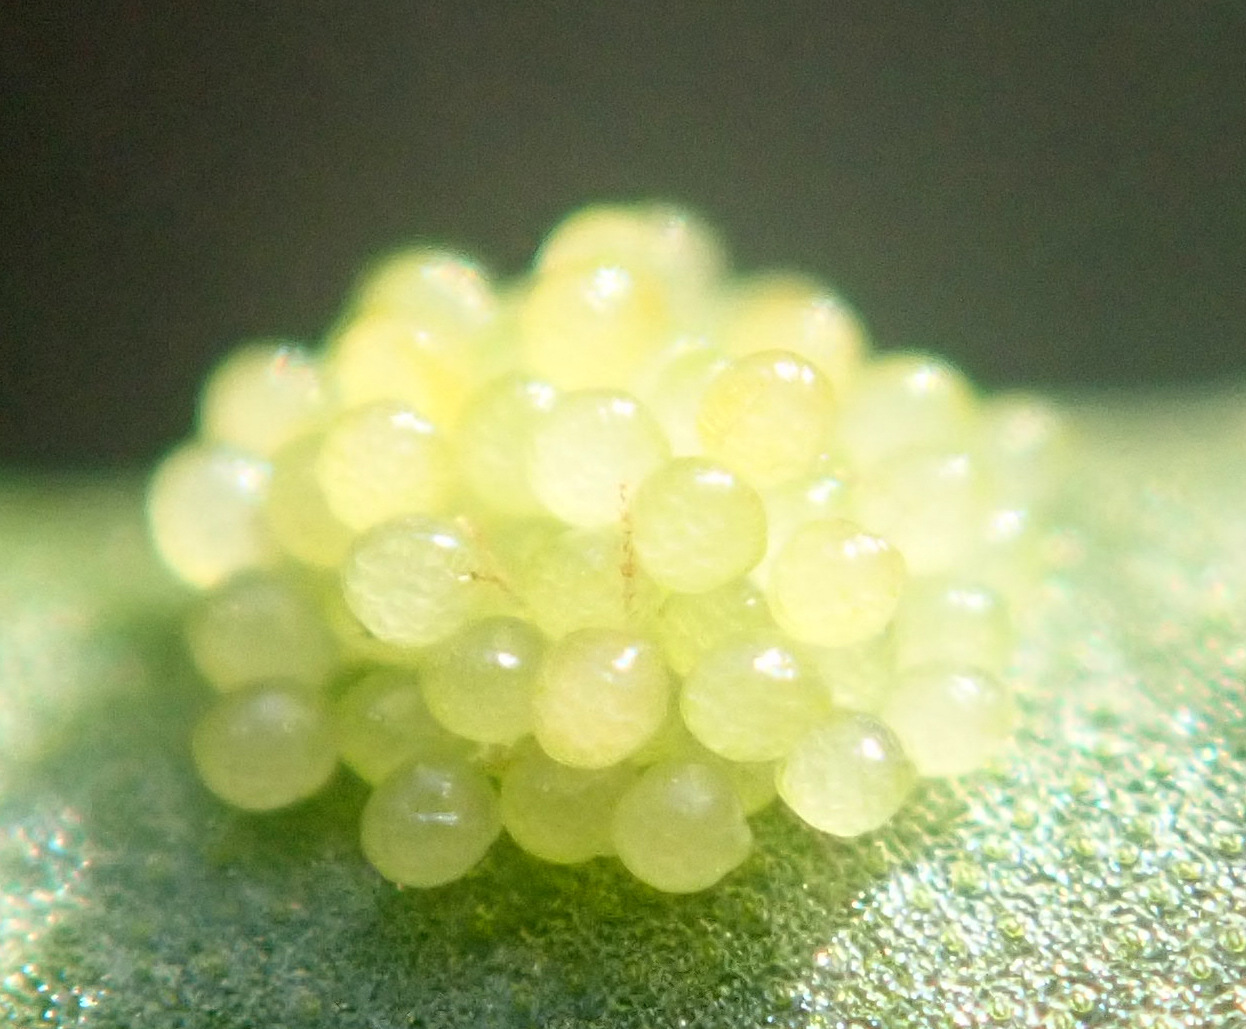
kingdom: Plantae
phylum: Tracheophyta
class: Polypodiopsida
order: Polypodiales
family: Polypodiaceae
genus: Polypodium
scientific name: Polypodium cambricum
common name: Southern polypody
